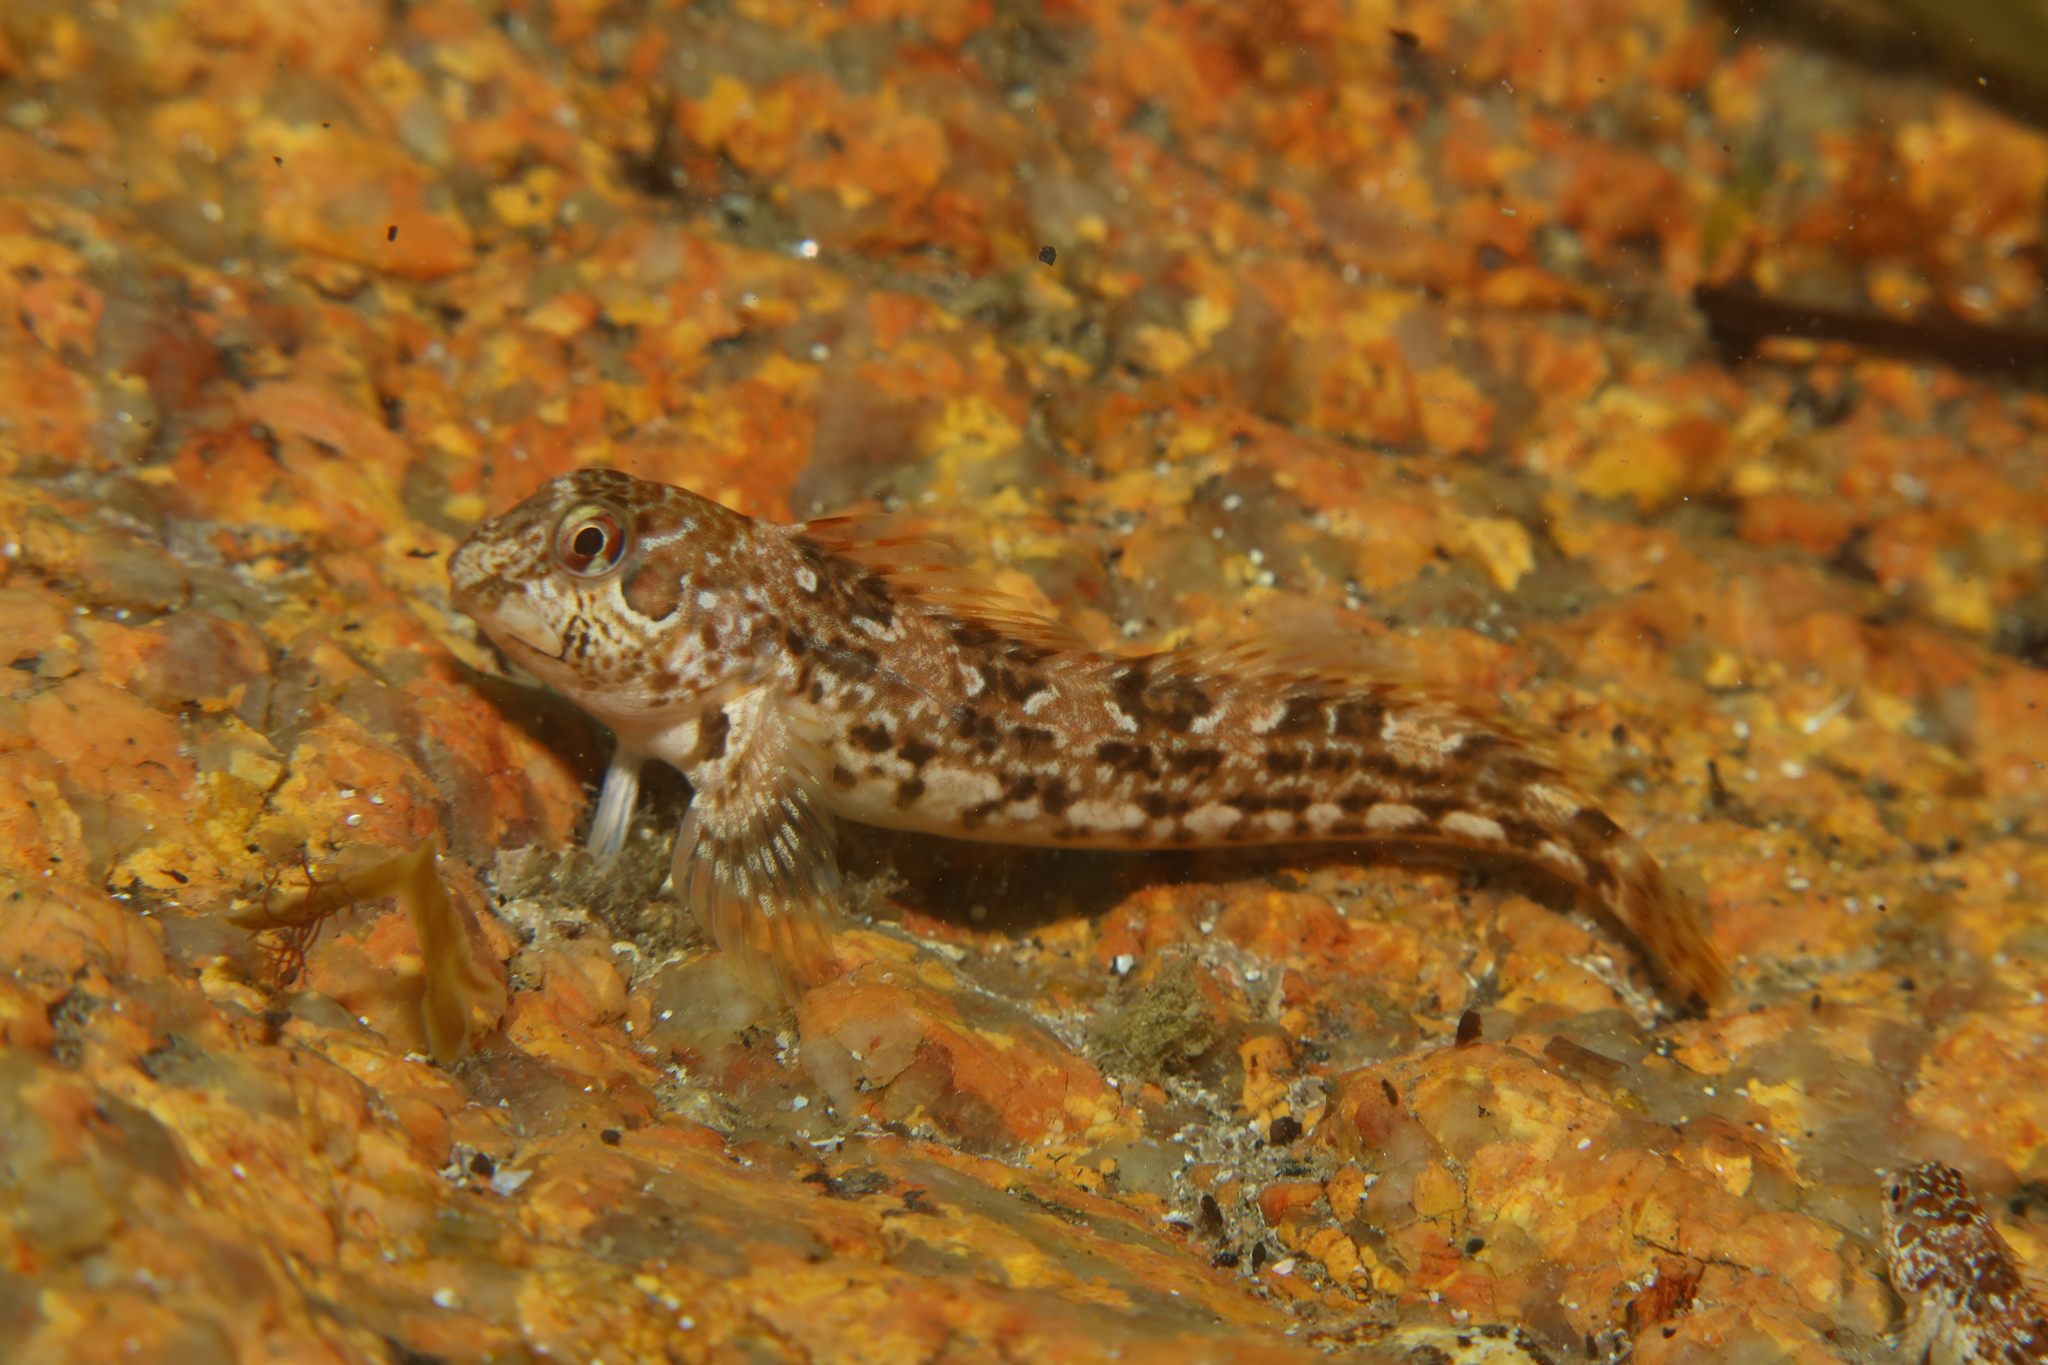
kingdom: Animalia
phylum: Chordata
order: Perciformes
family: Blenniidae
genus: Lipophrys
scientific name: Lipophrys pholis
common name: Shanny
